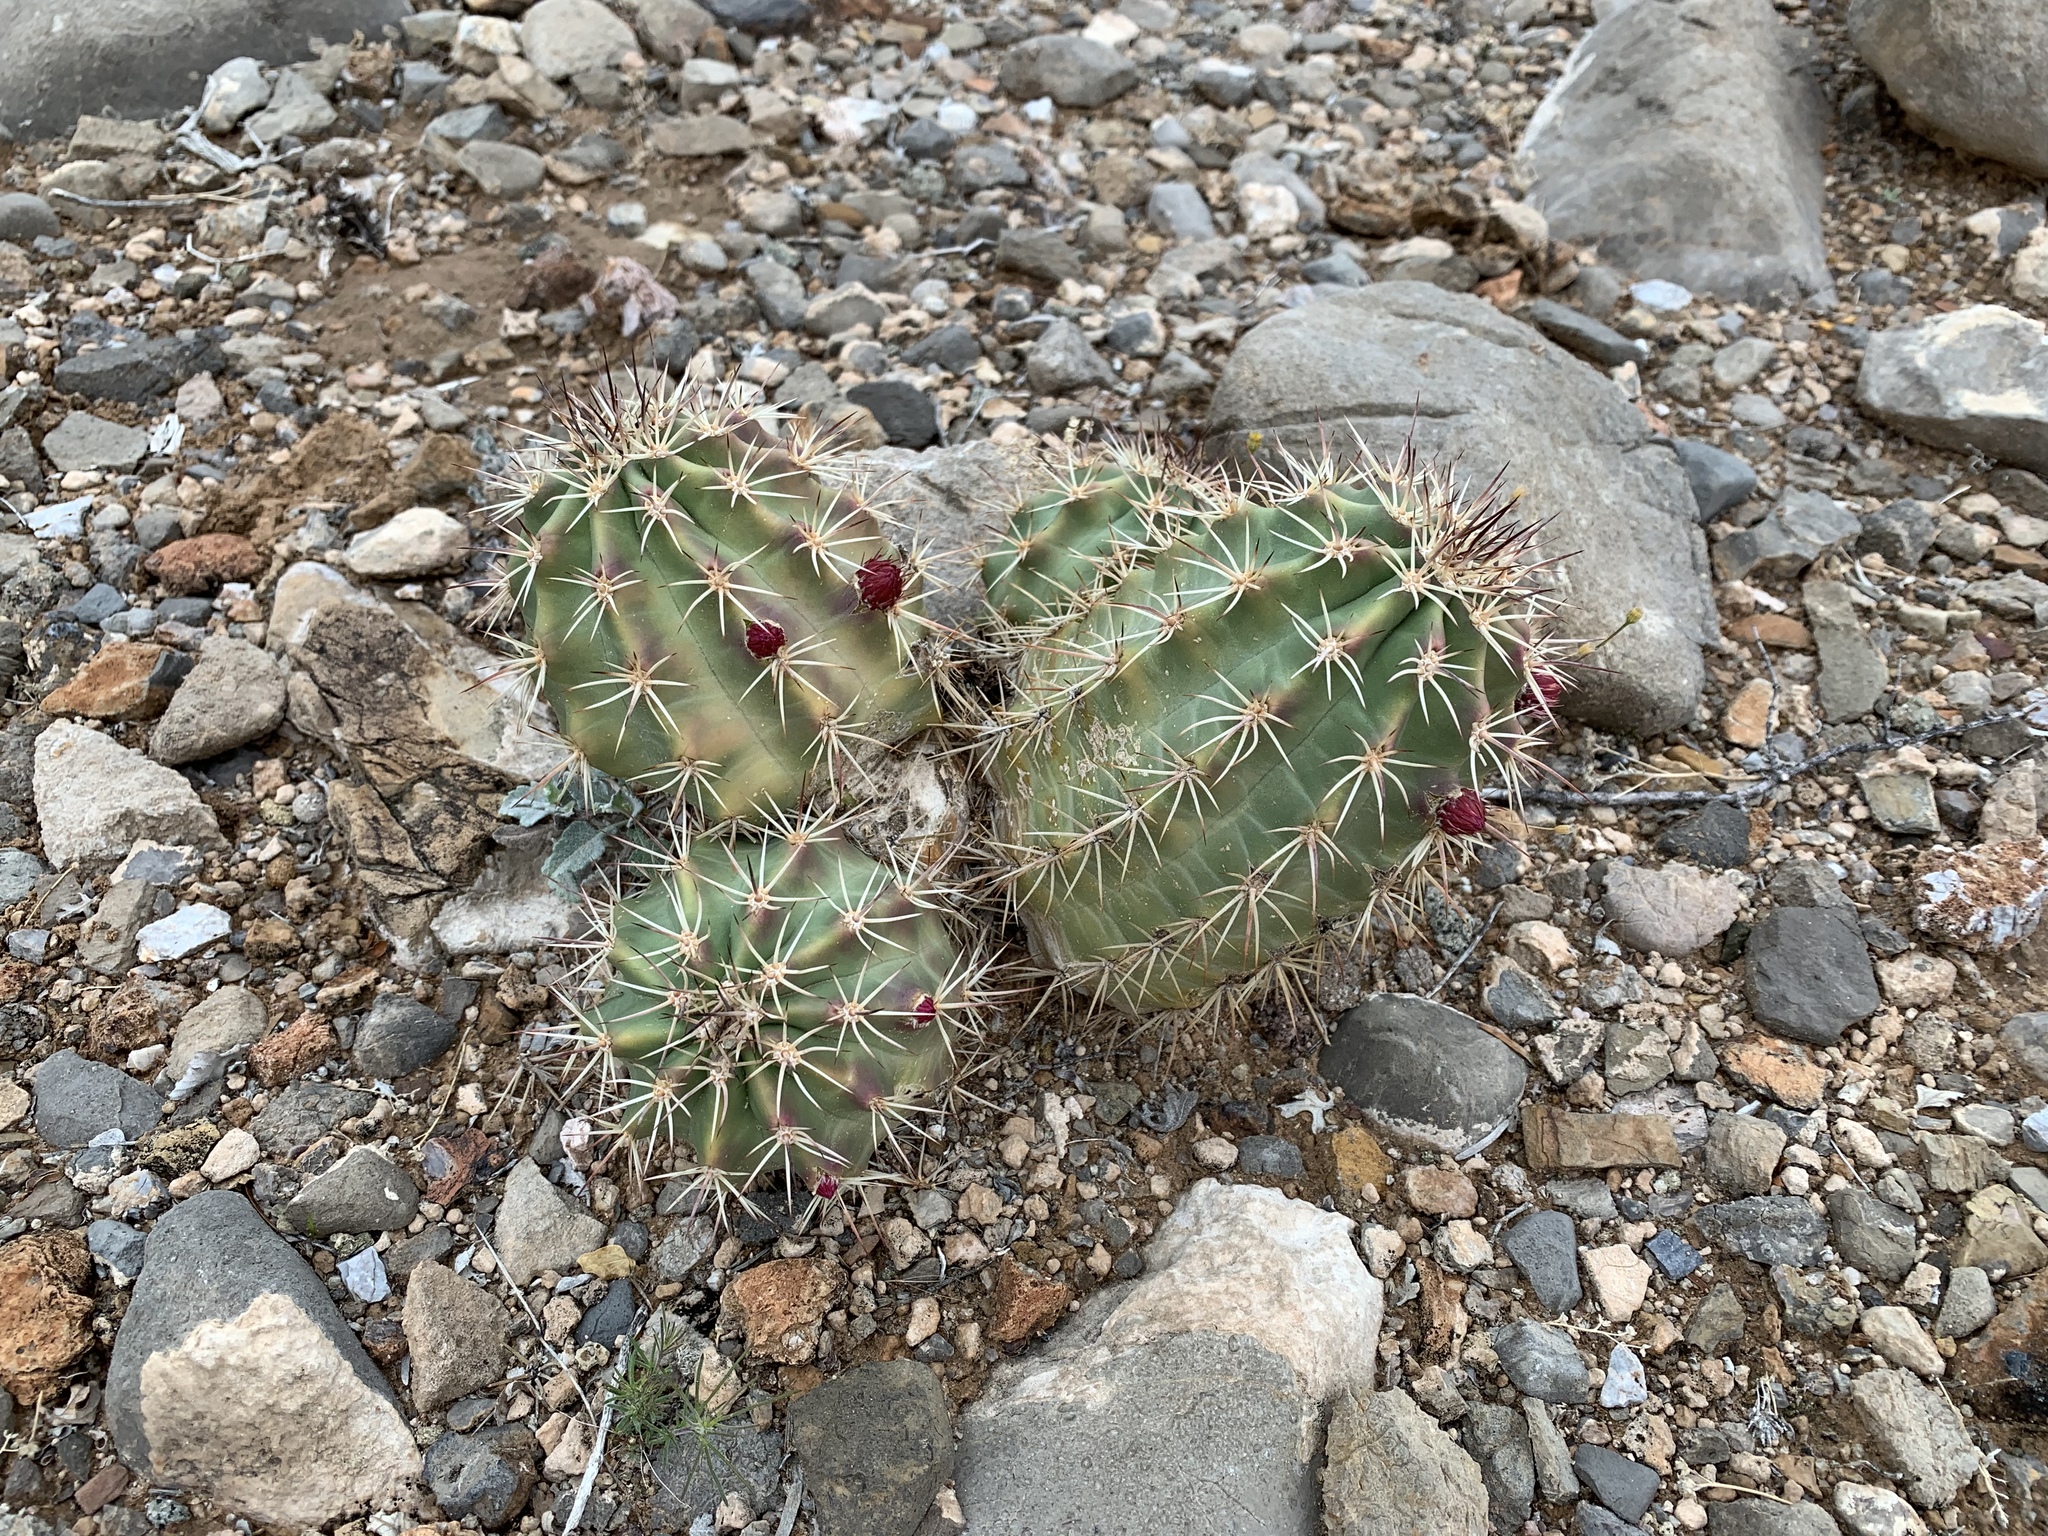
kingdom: Plantae
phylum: Tracheophyta
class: Magnoliopsida
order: Caryophyllales
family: Cactaceae
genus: Echinocereus
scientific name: Echinocereus coccineus
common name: Scarlet hedgehog cactus
